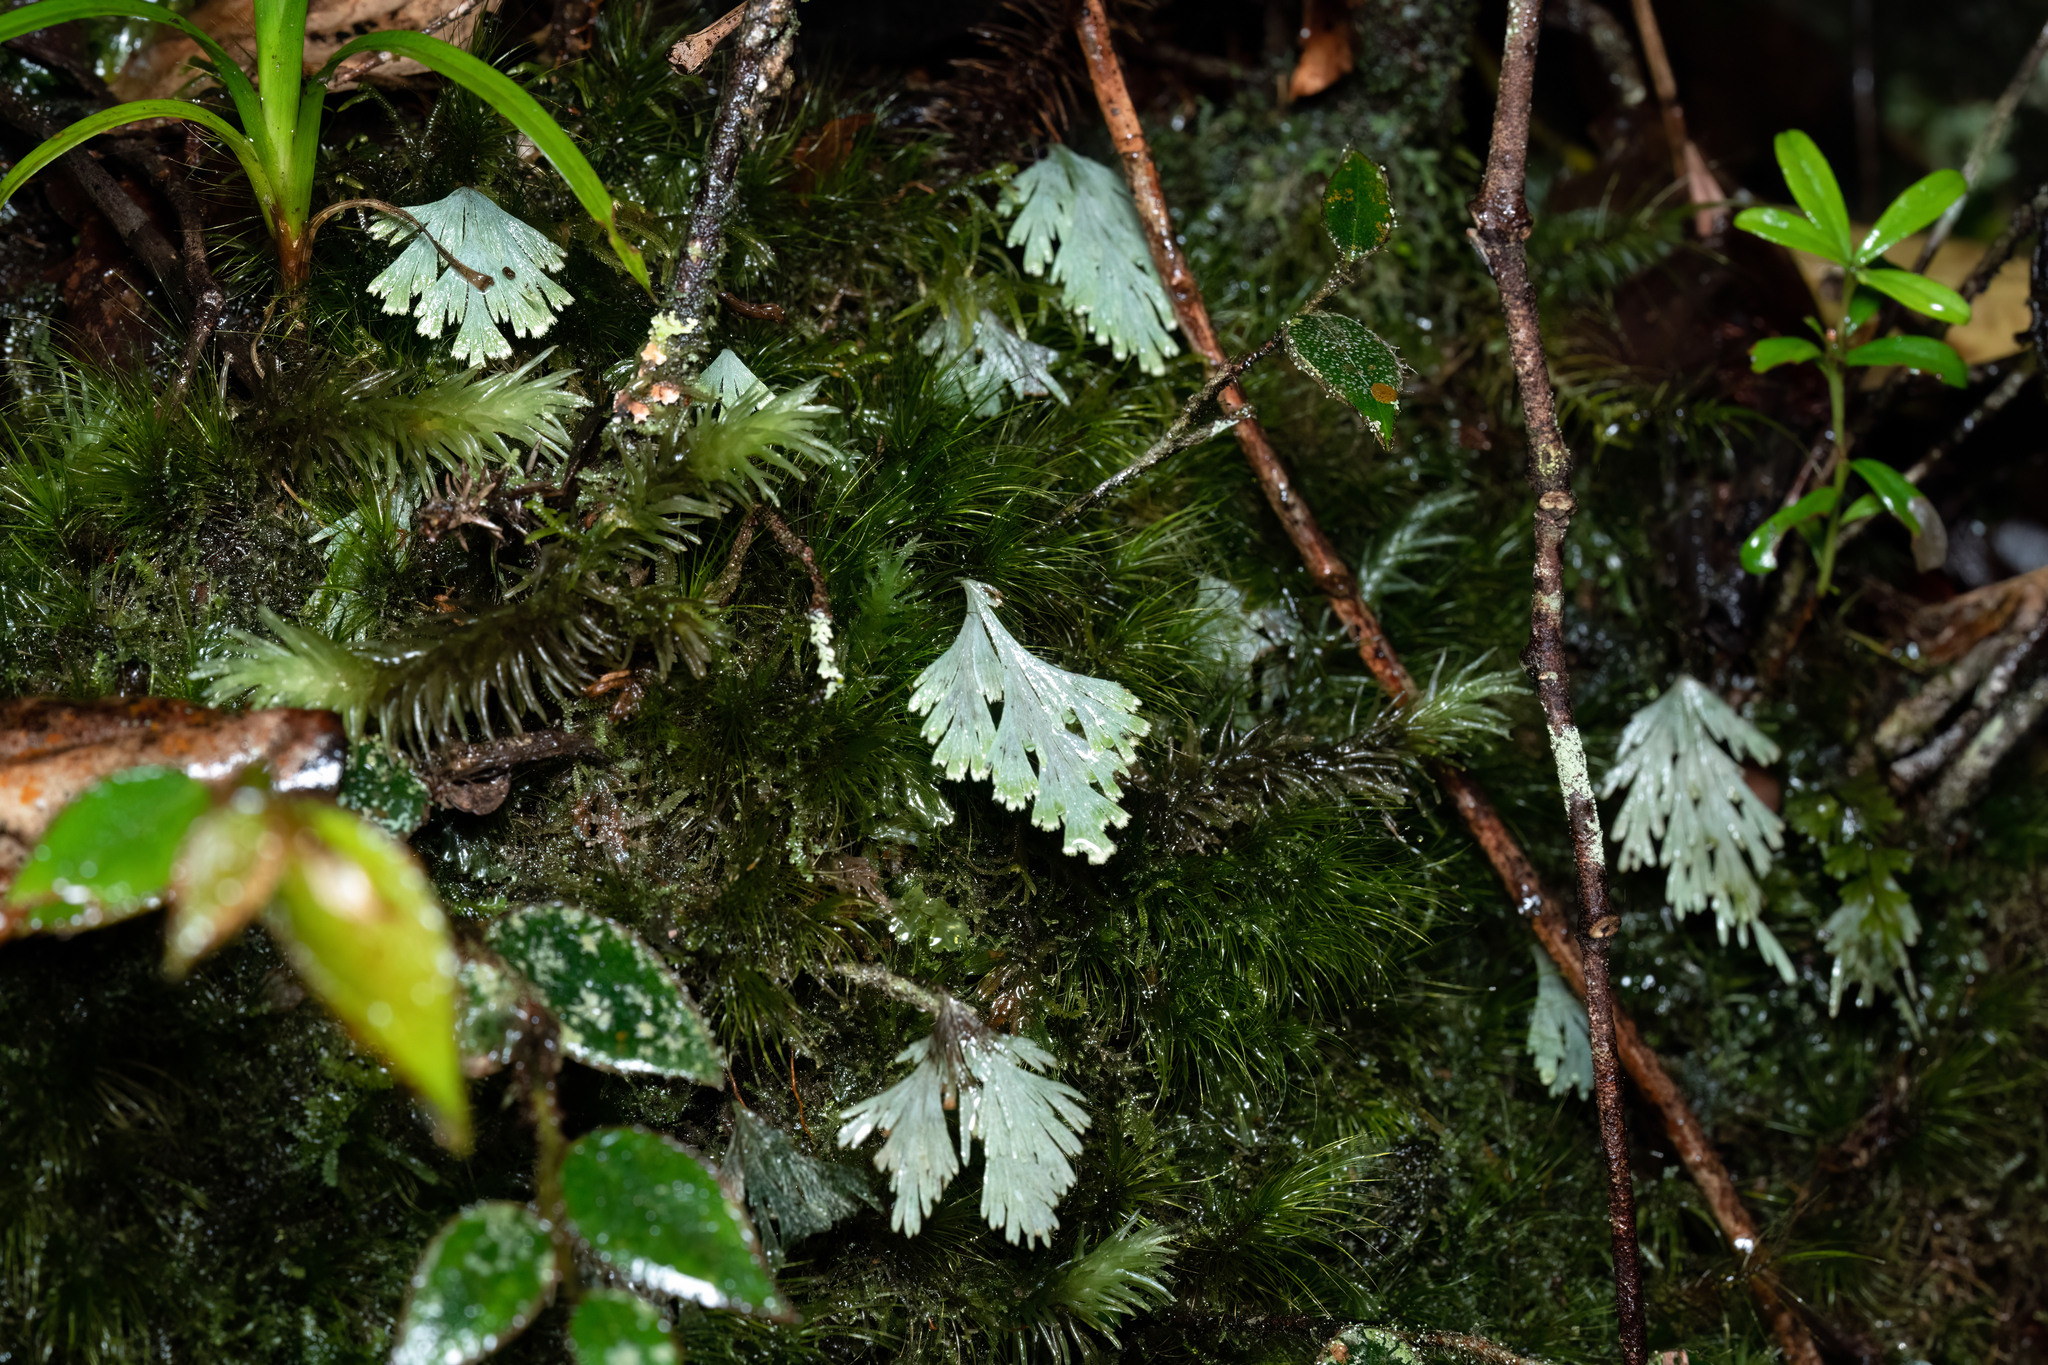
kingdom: Plantae
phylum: Tracheophyta
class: Polypodiopsida
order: Hymenophyllales
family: Hymenophyllaceae
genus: Hymenophyllum
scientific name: Hymenophyllum pallidum
